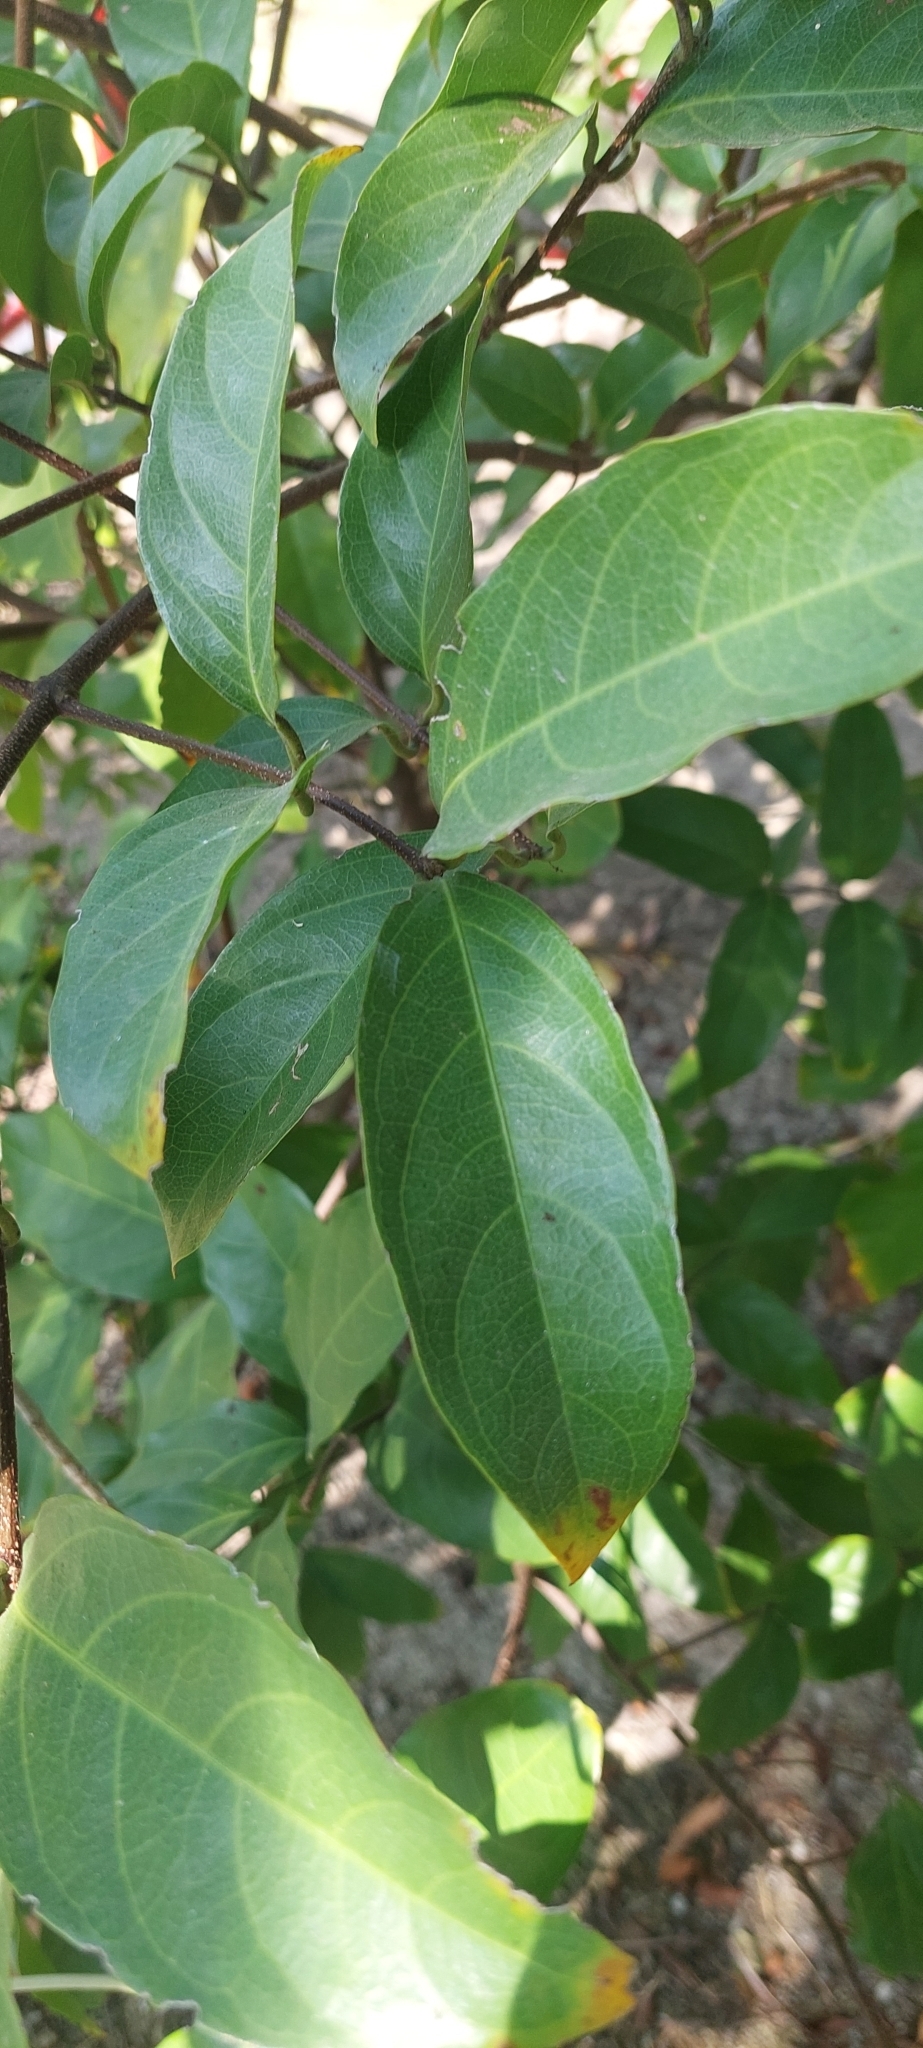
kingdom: Plantae
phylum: Tracheophyta
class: Magnoliopsida
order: Malpighiales
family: Malpighiaceae
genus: Hiptage
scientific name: Hiptage benghalensis
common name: Hiptage
